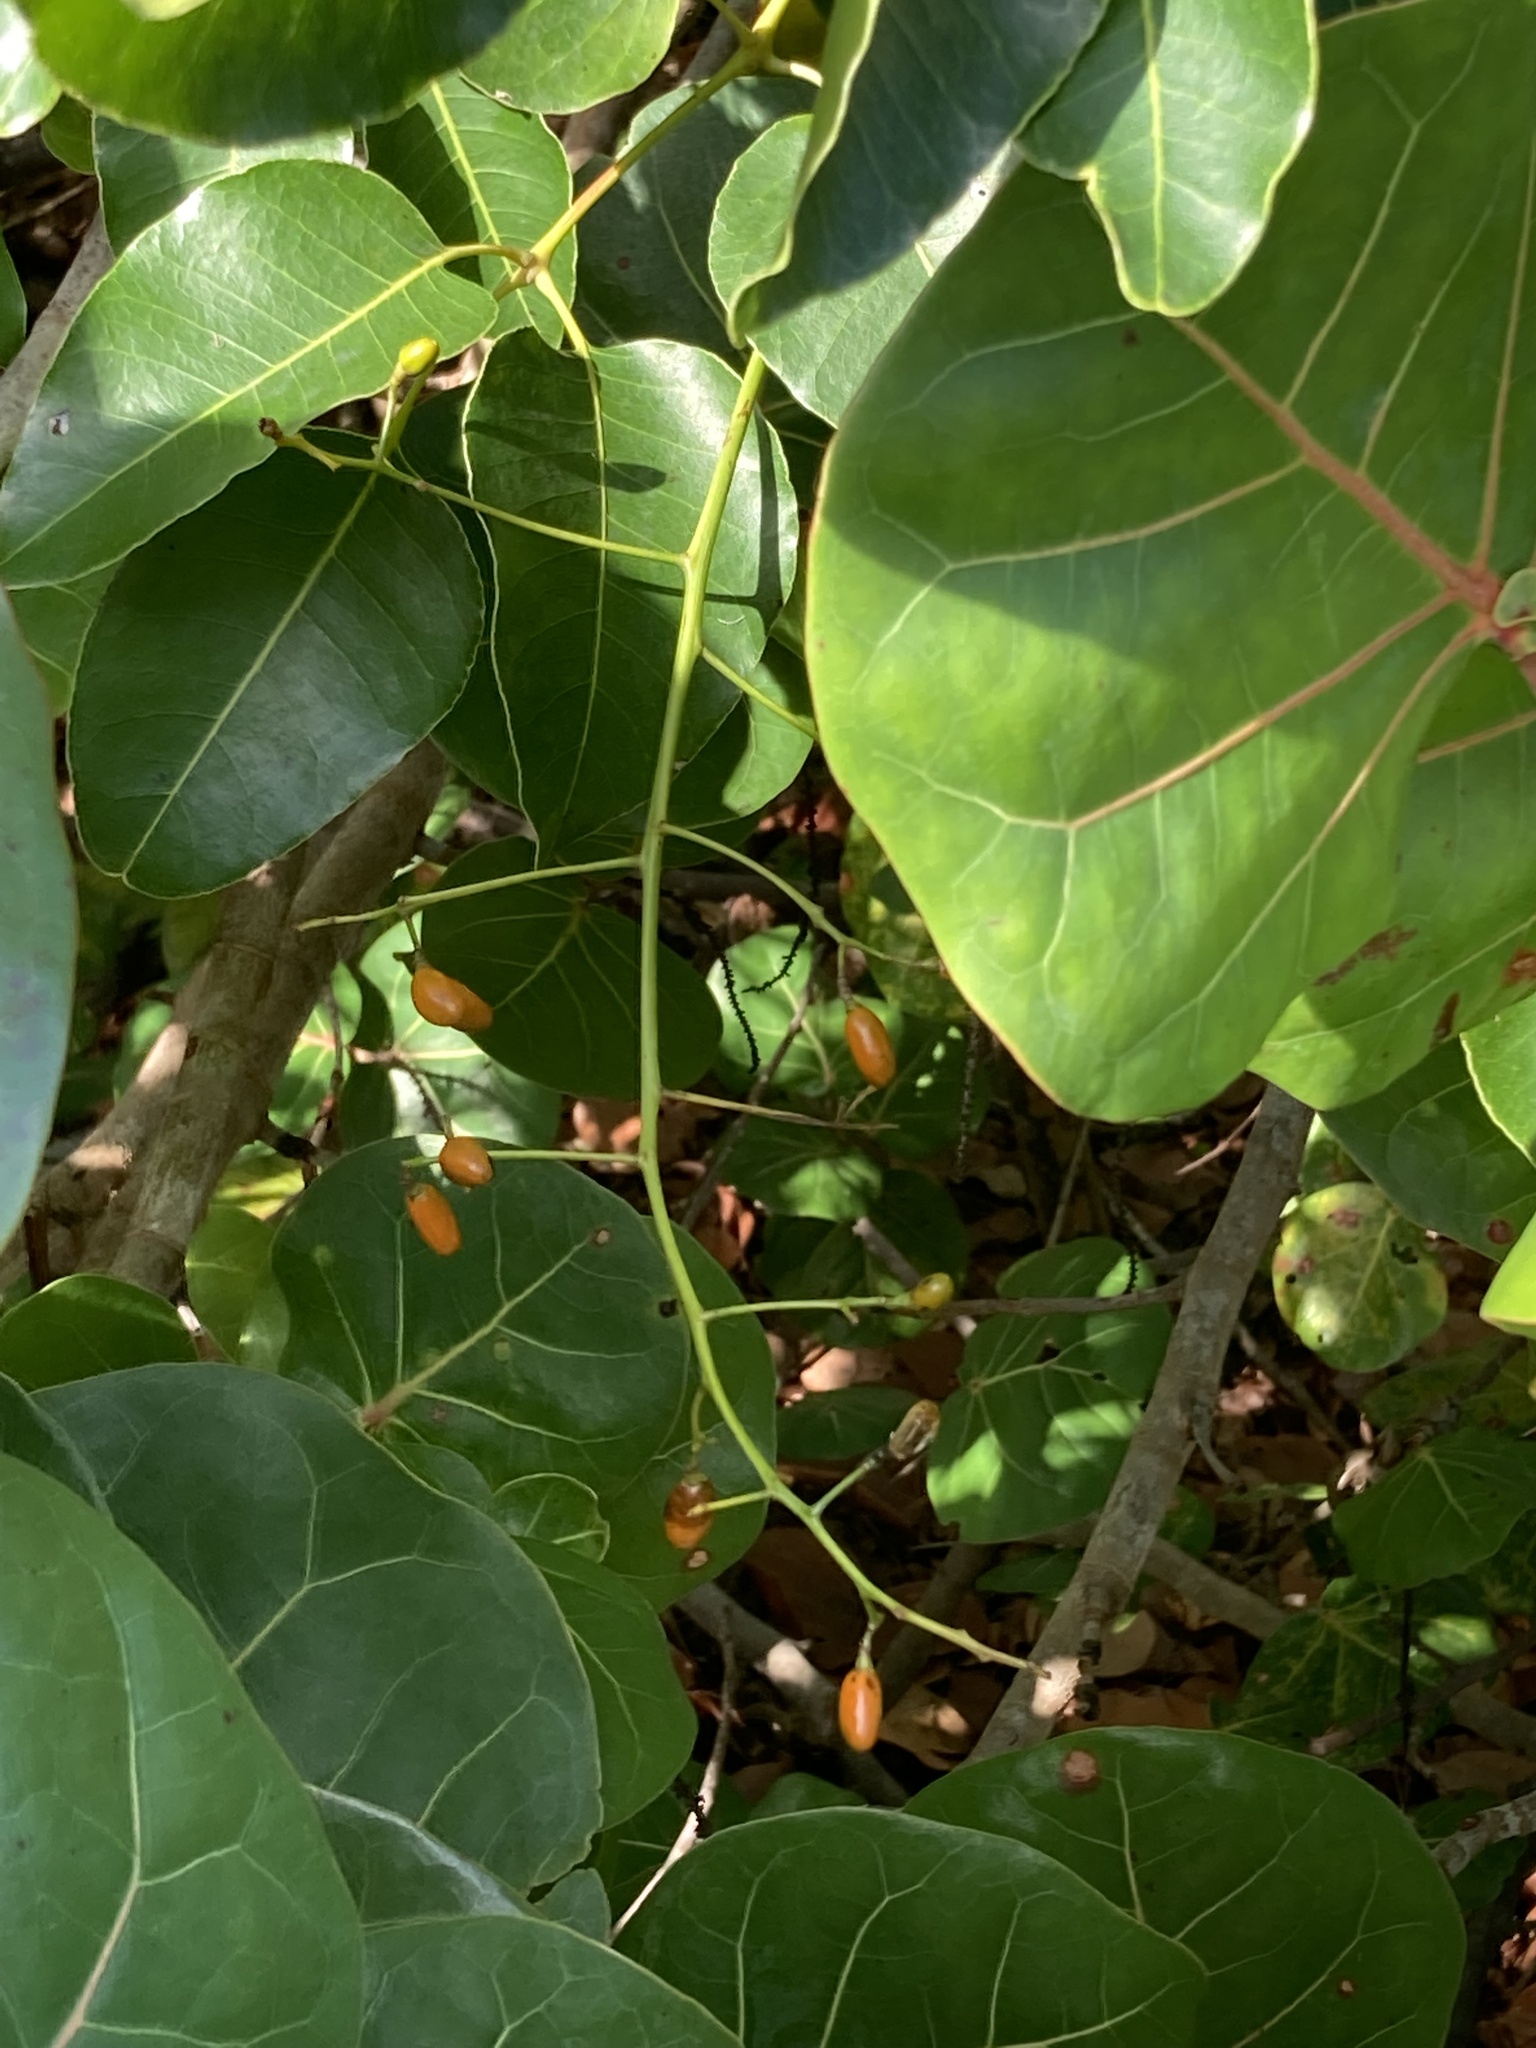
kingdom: Plantae
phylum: Tracheophyta
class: Magnoliopsida
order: Sapindales
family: Anacardiaceae
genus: Metopium
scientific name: Metopium toxiferum
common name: Florida poisontree
